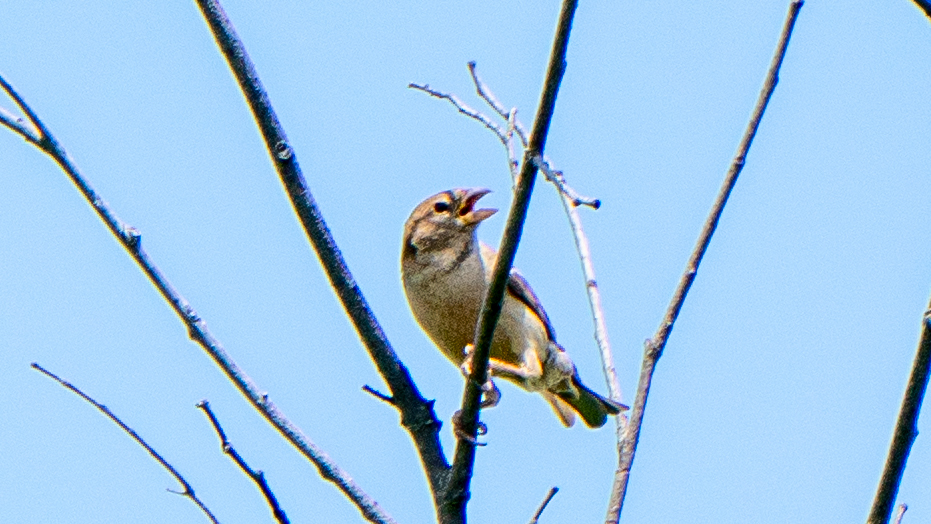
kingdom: Animalia
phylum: Chordata
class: Aves
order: Passeriformes
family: Passeridae
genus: Passer
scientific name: Passer domesticus
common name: House sparrow
